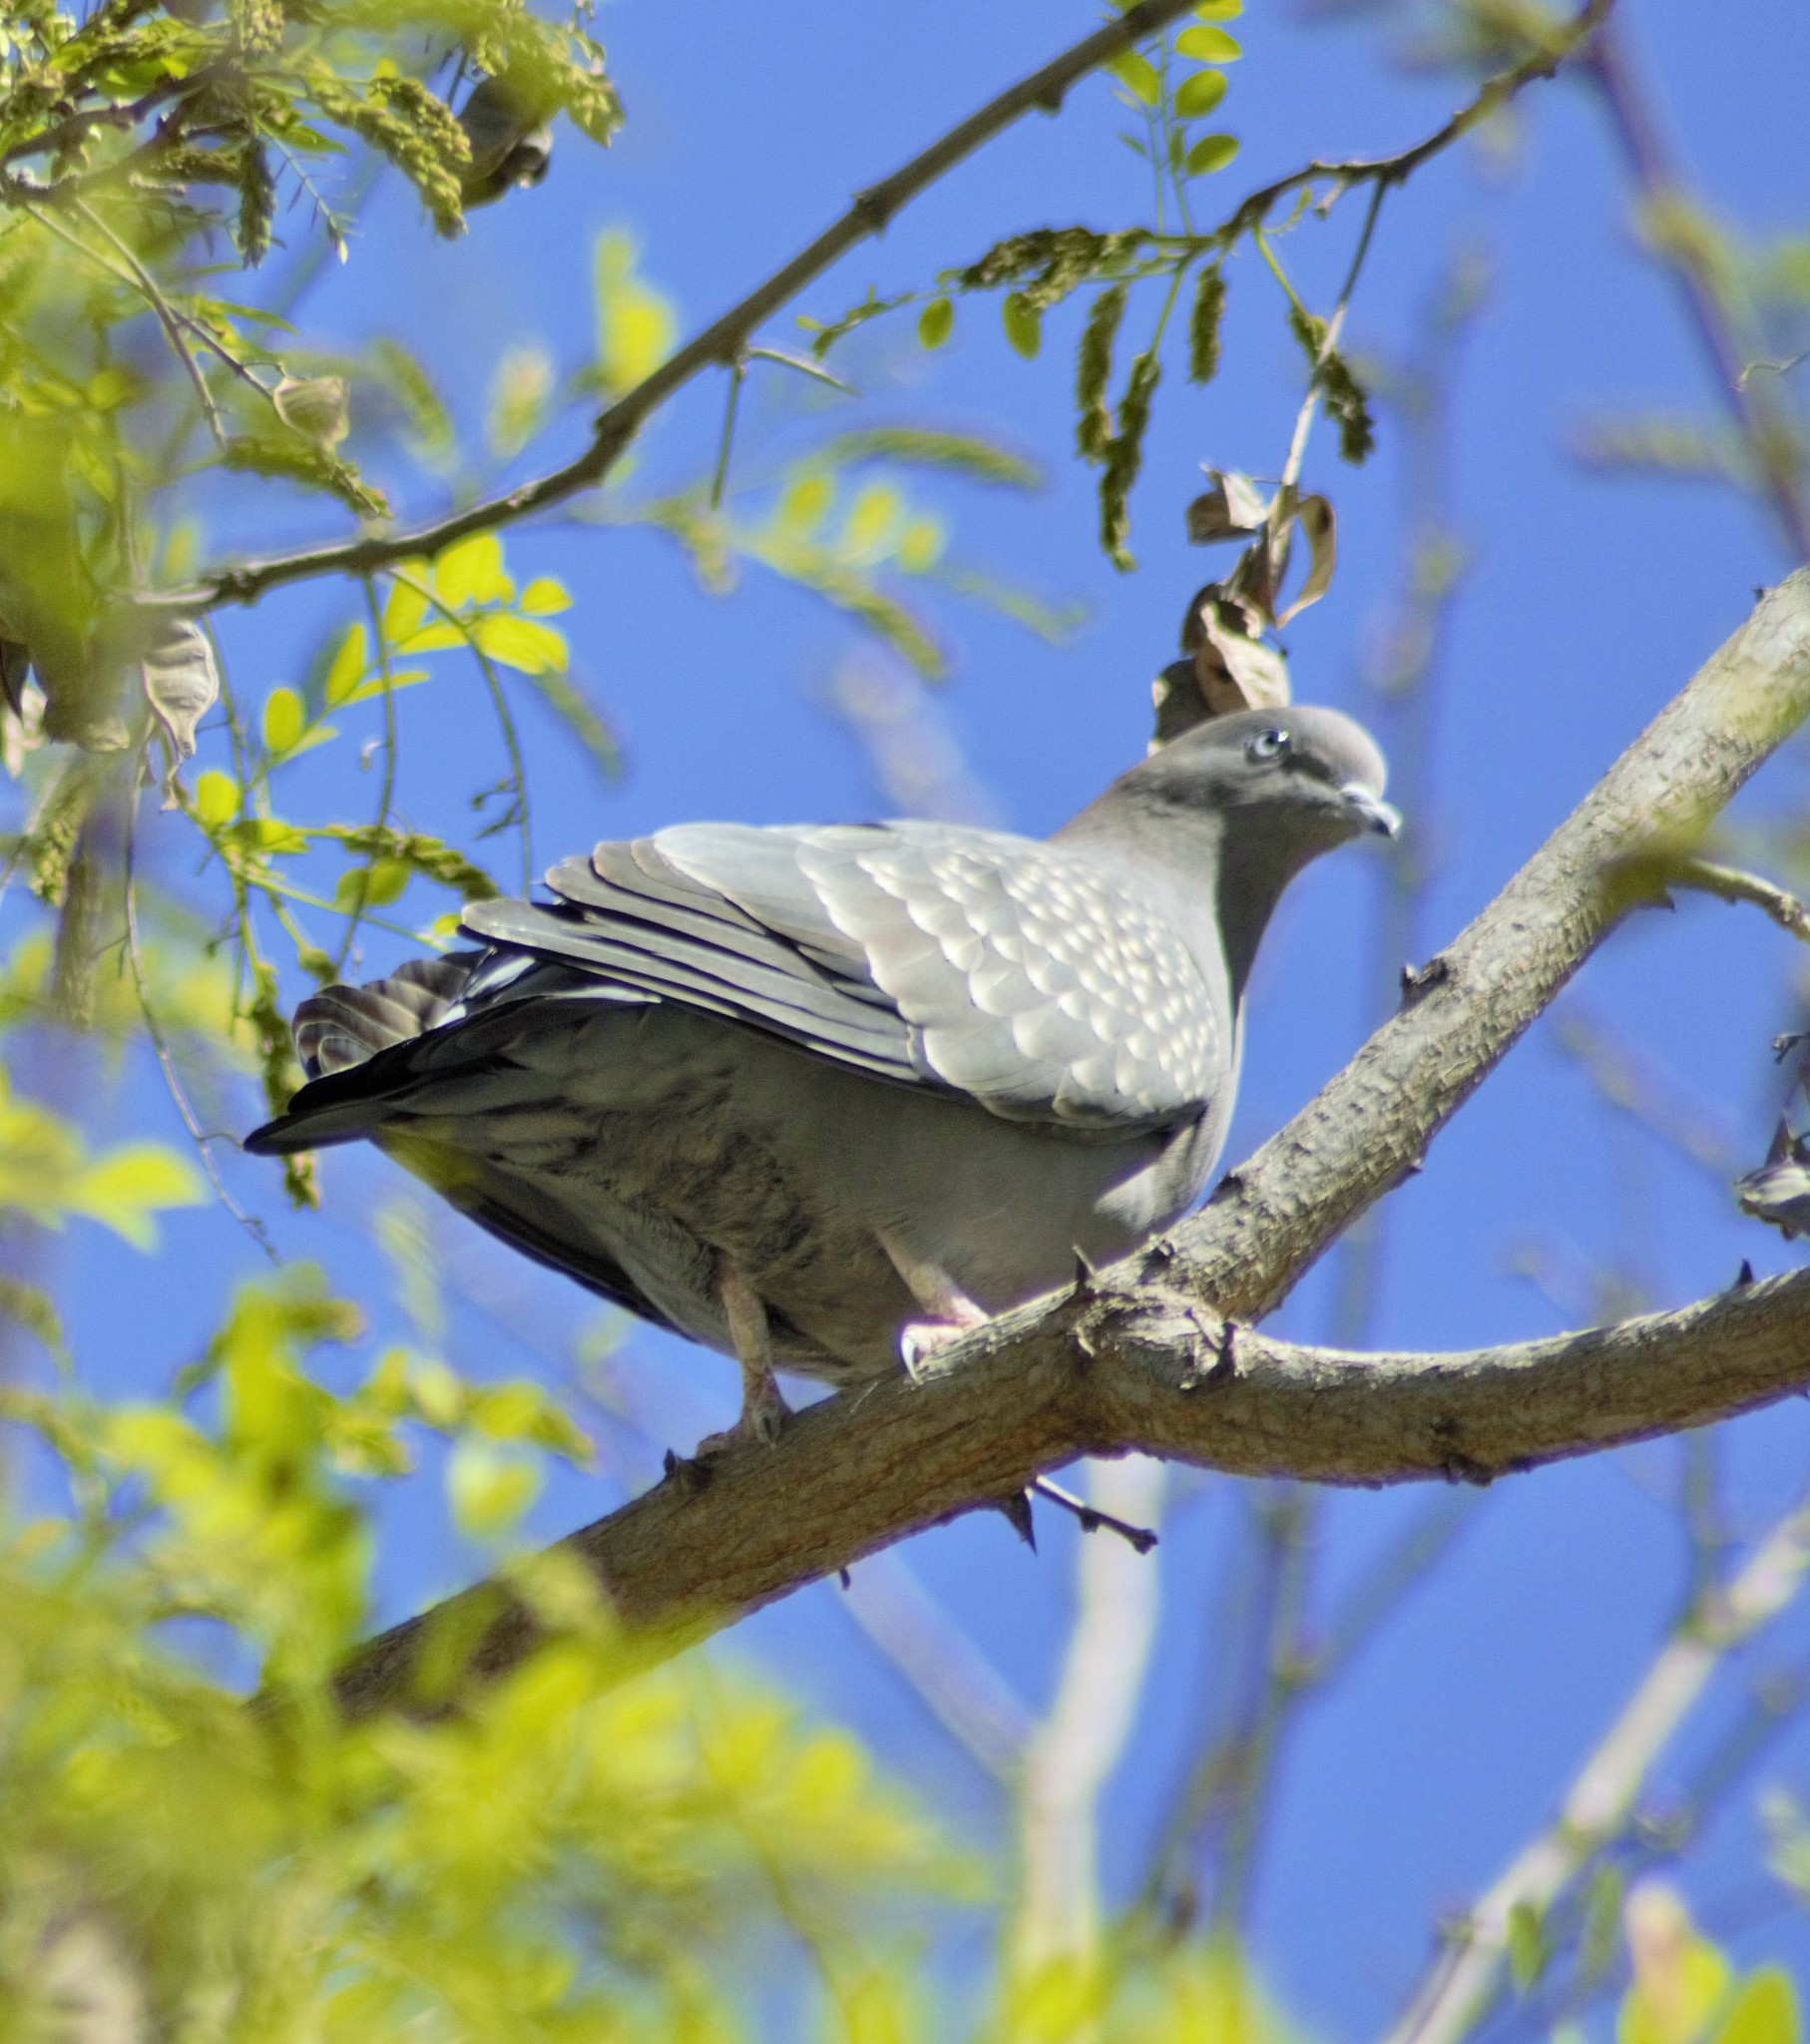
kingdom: Animalia
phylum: Chordata
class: Aves
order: Columbiformes
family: Columbidae
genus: Patagioenas
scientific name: Patagioenas maculosa
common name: Spot-winged pigeon
